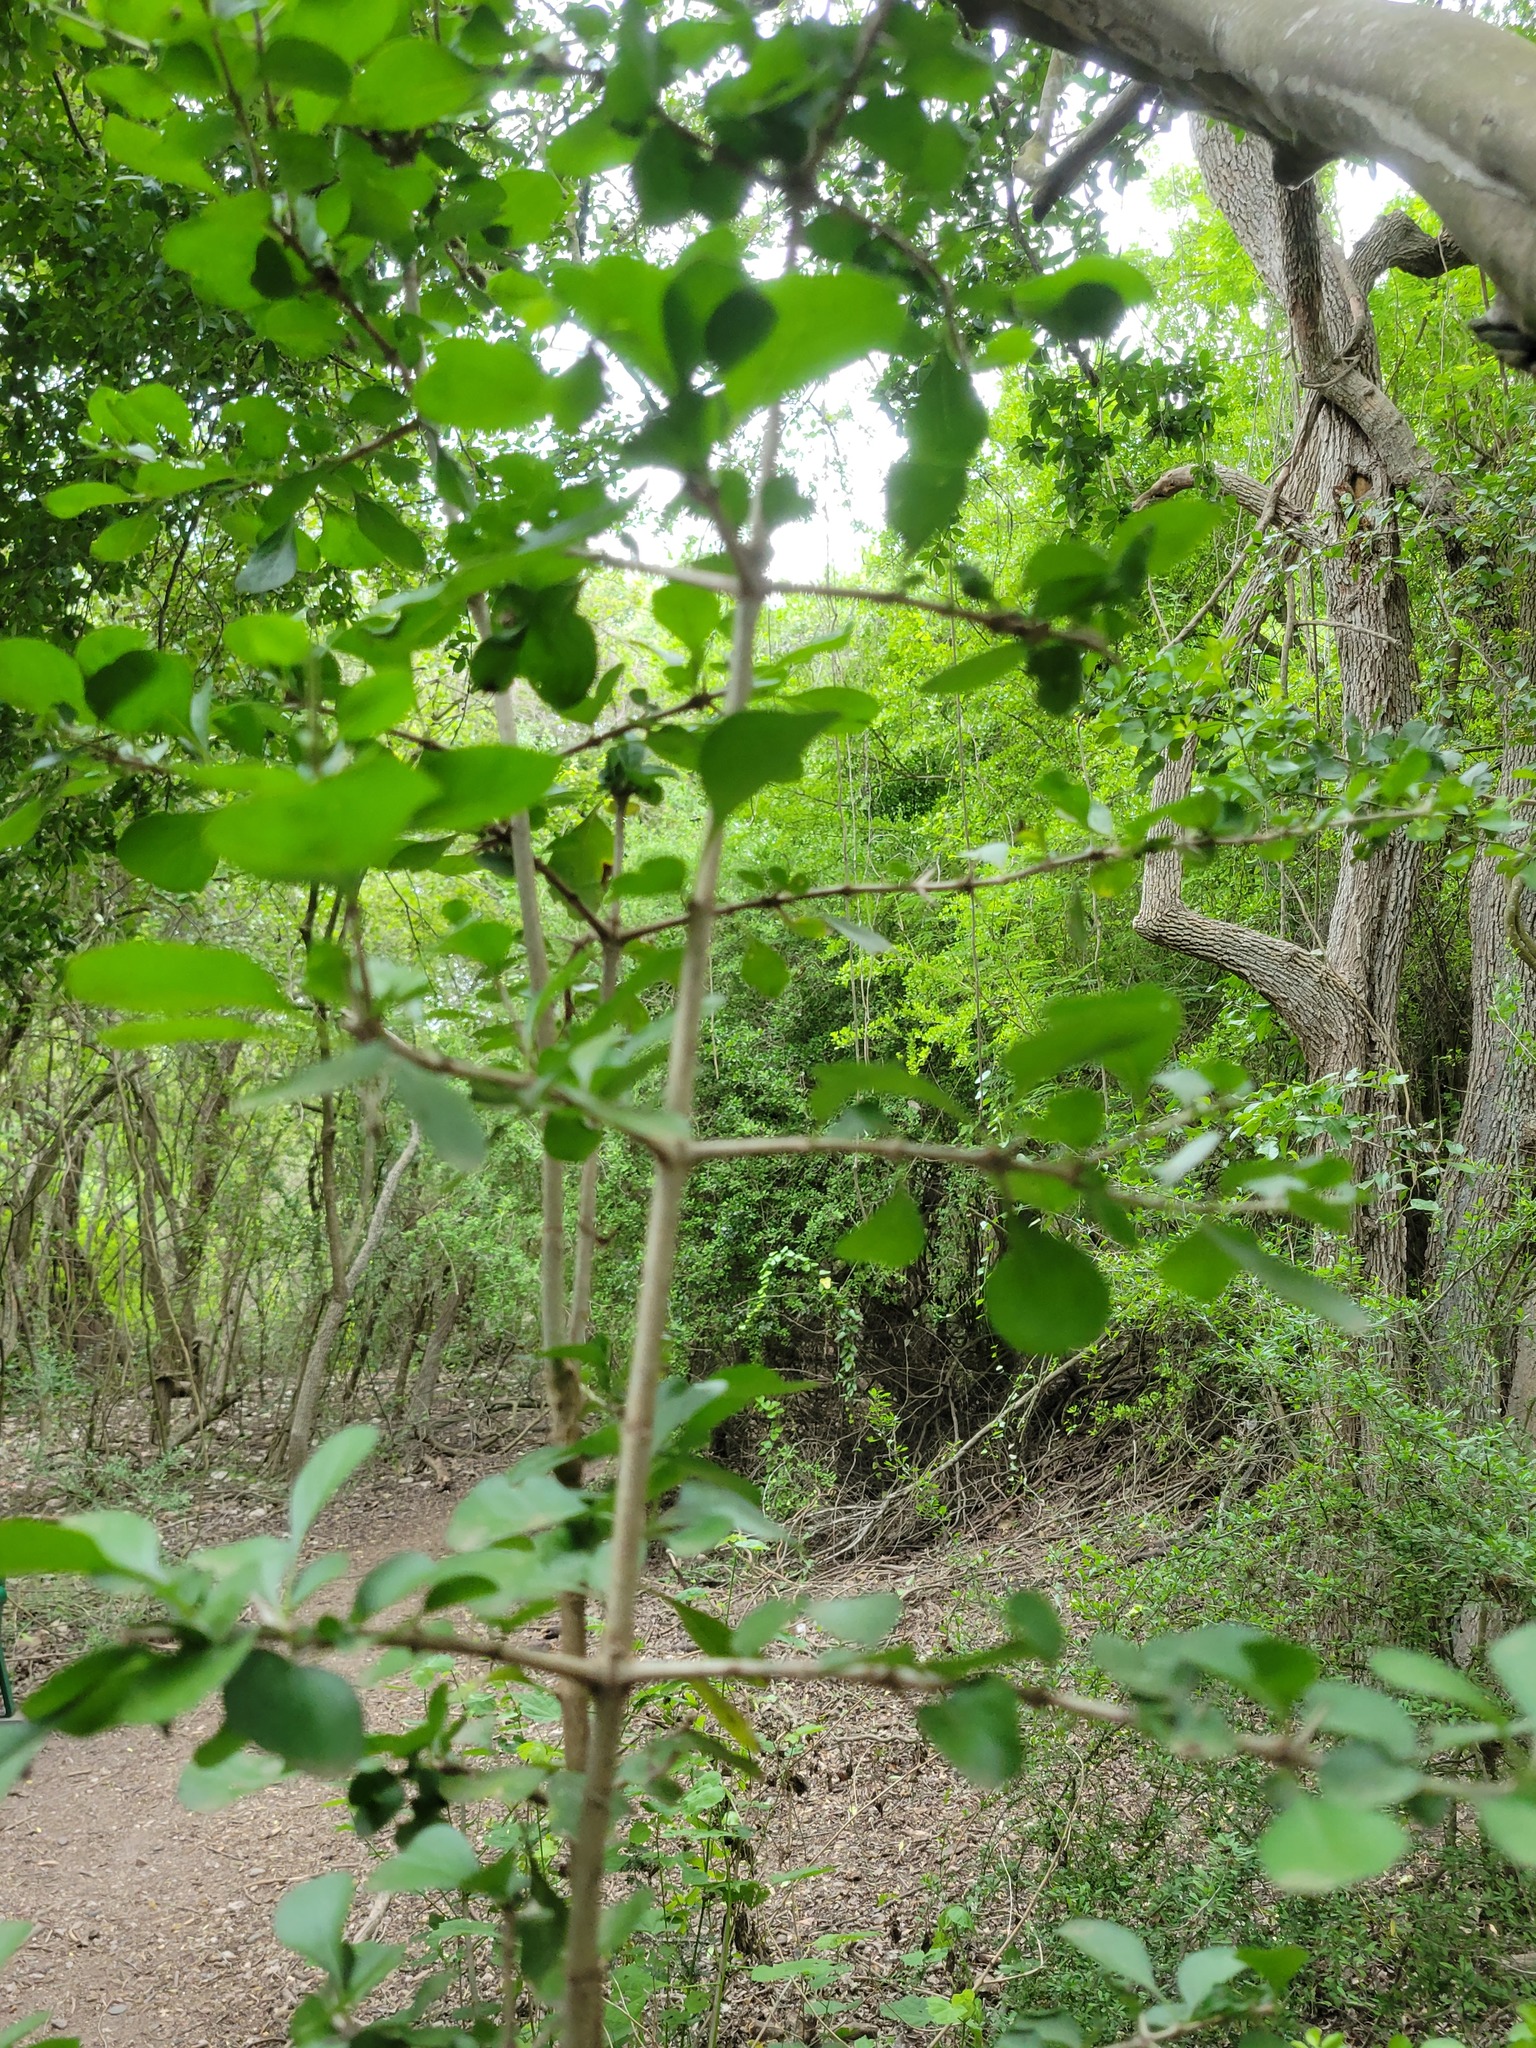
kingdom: Plantae
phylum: Tracheophyta
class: Magnoliopsida
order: Gentianales
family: Rubiaceae
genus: Randia
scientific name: Randia obcordata
